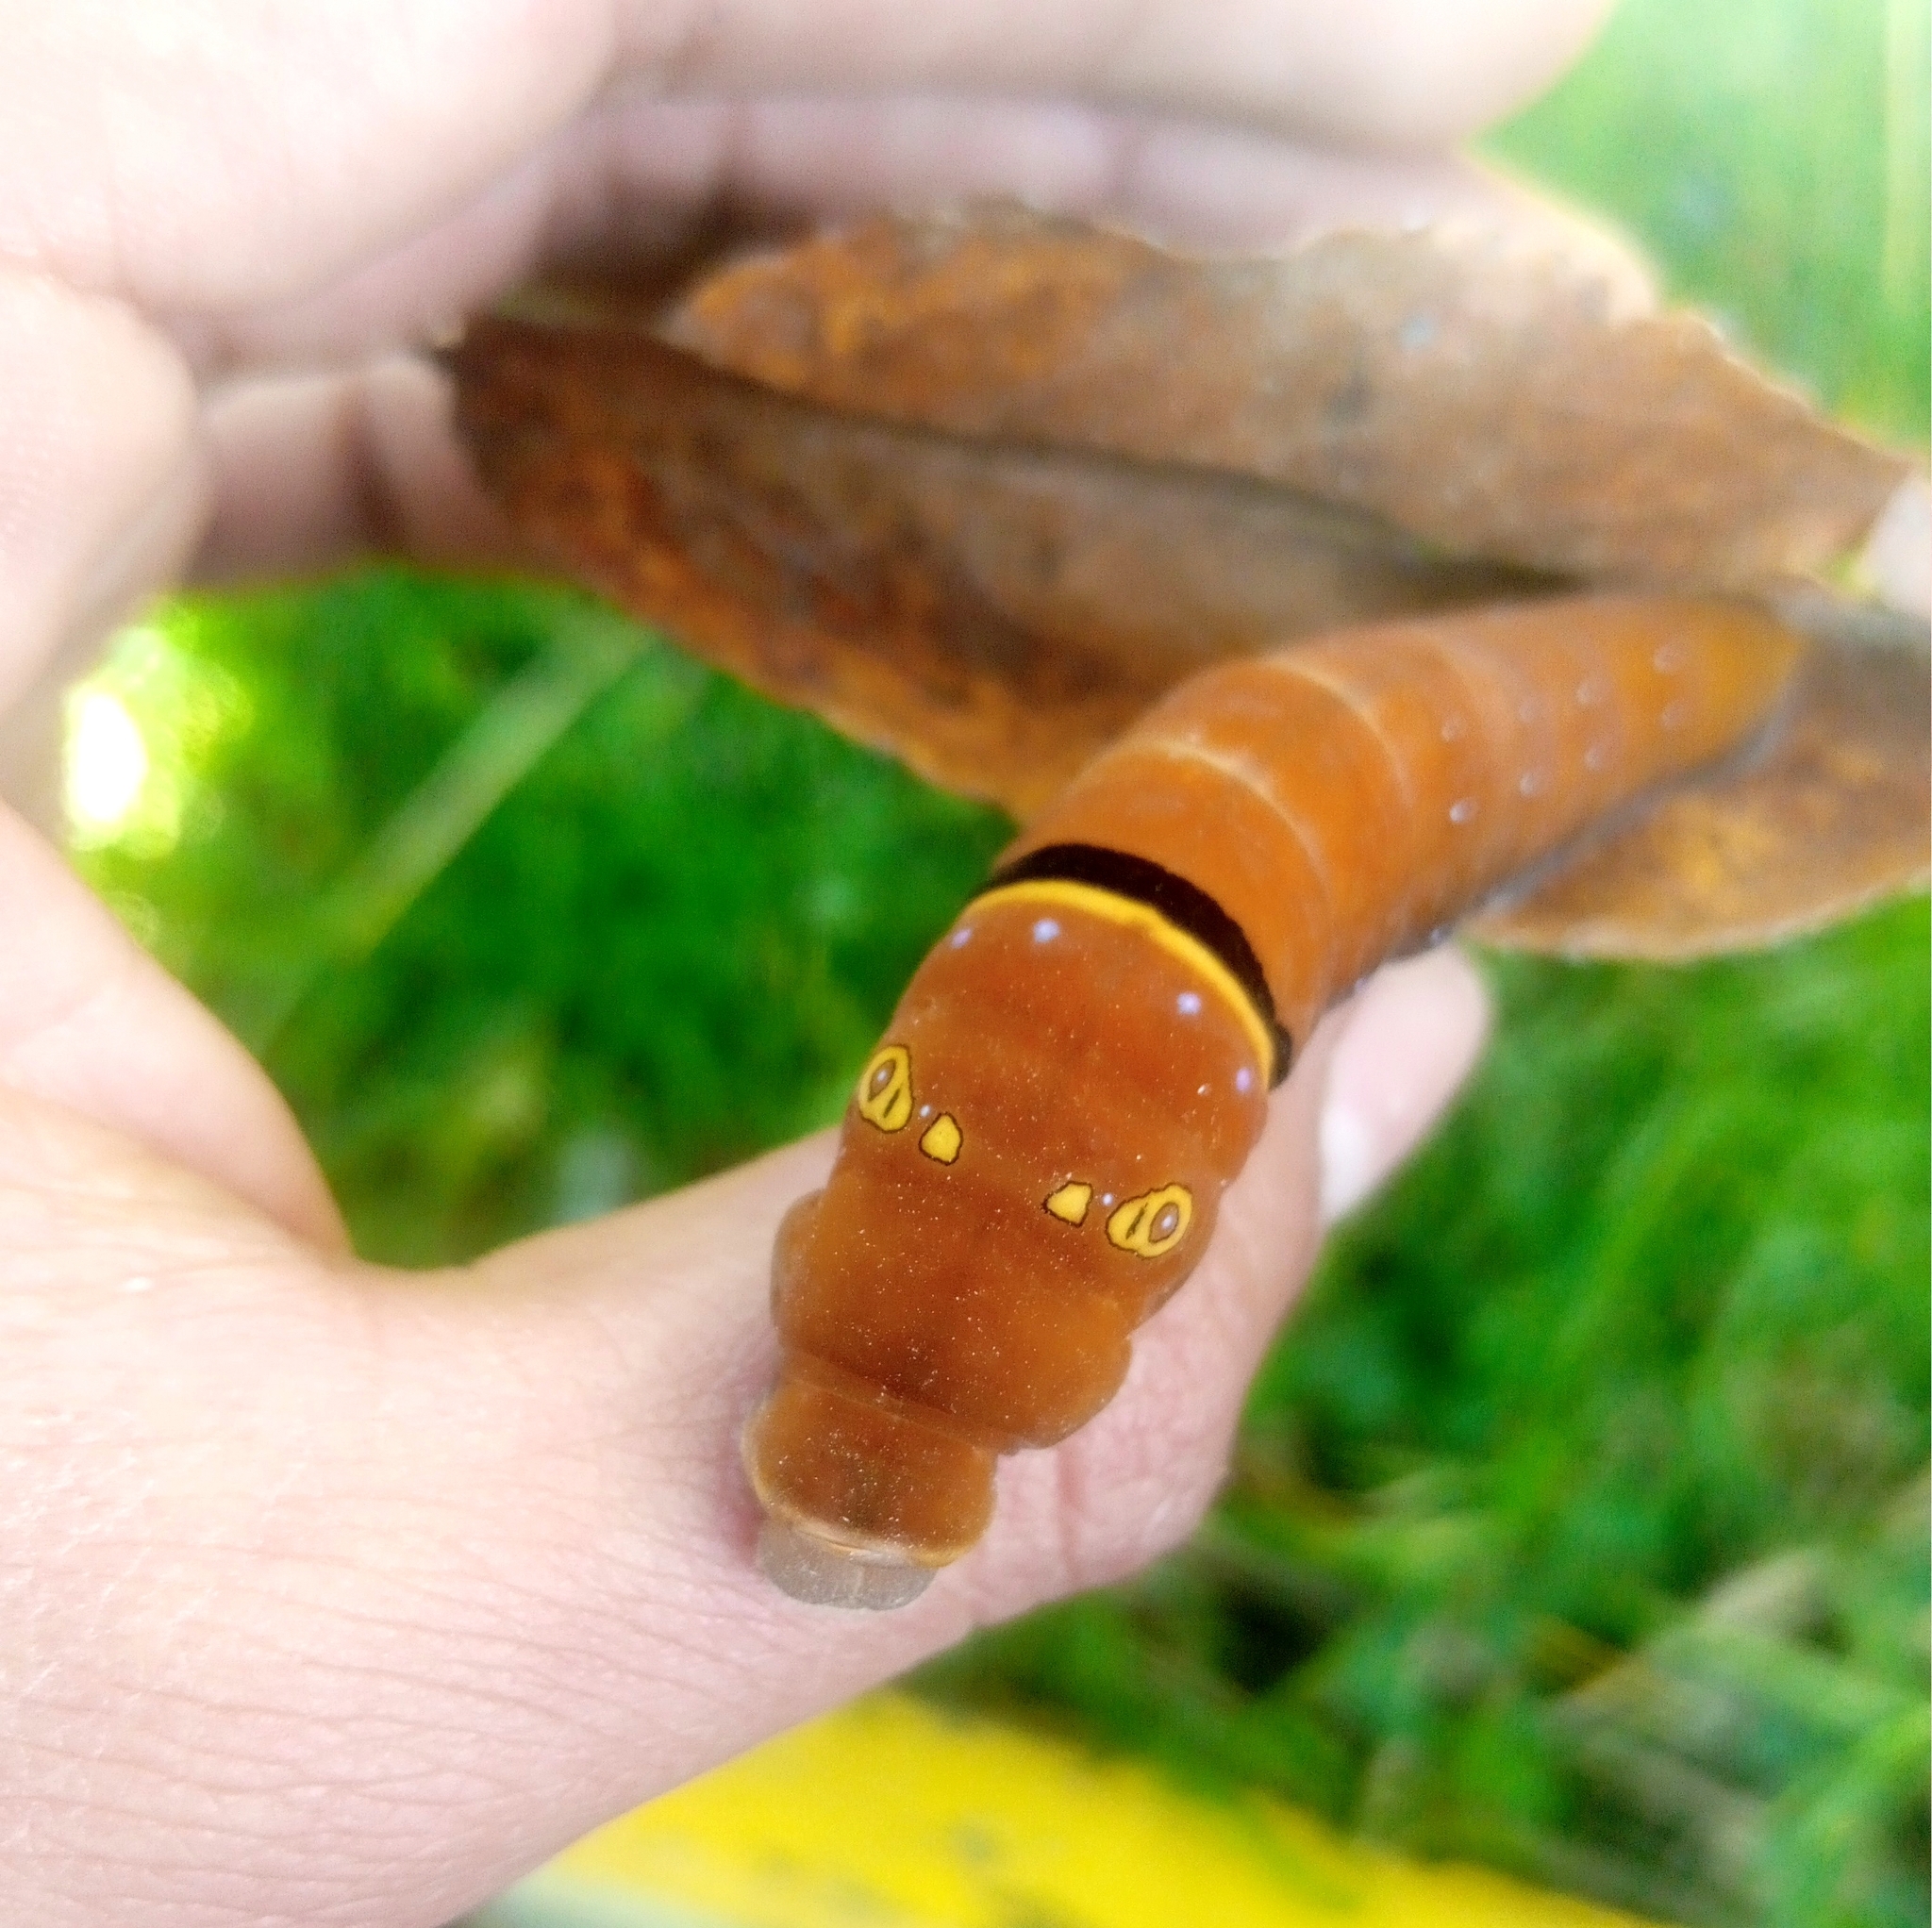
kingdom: Animalia
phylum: Arthropoda
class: Insecta
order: Lepidoptera
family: Papilionidae
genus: Papilio
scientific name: Papilio multicaudata
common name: Two-tailed tiger swallowtail
